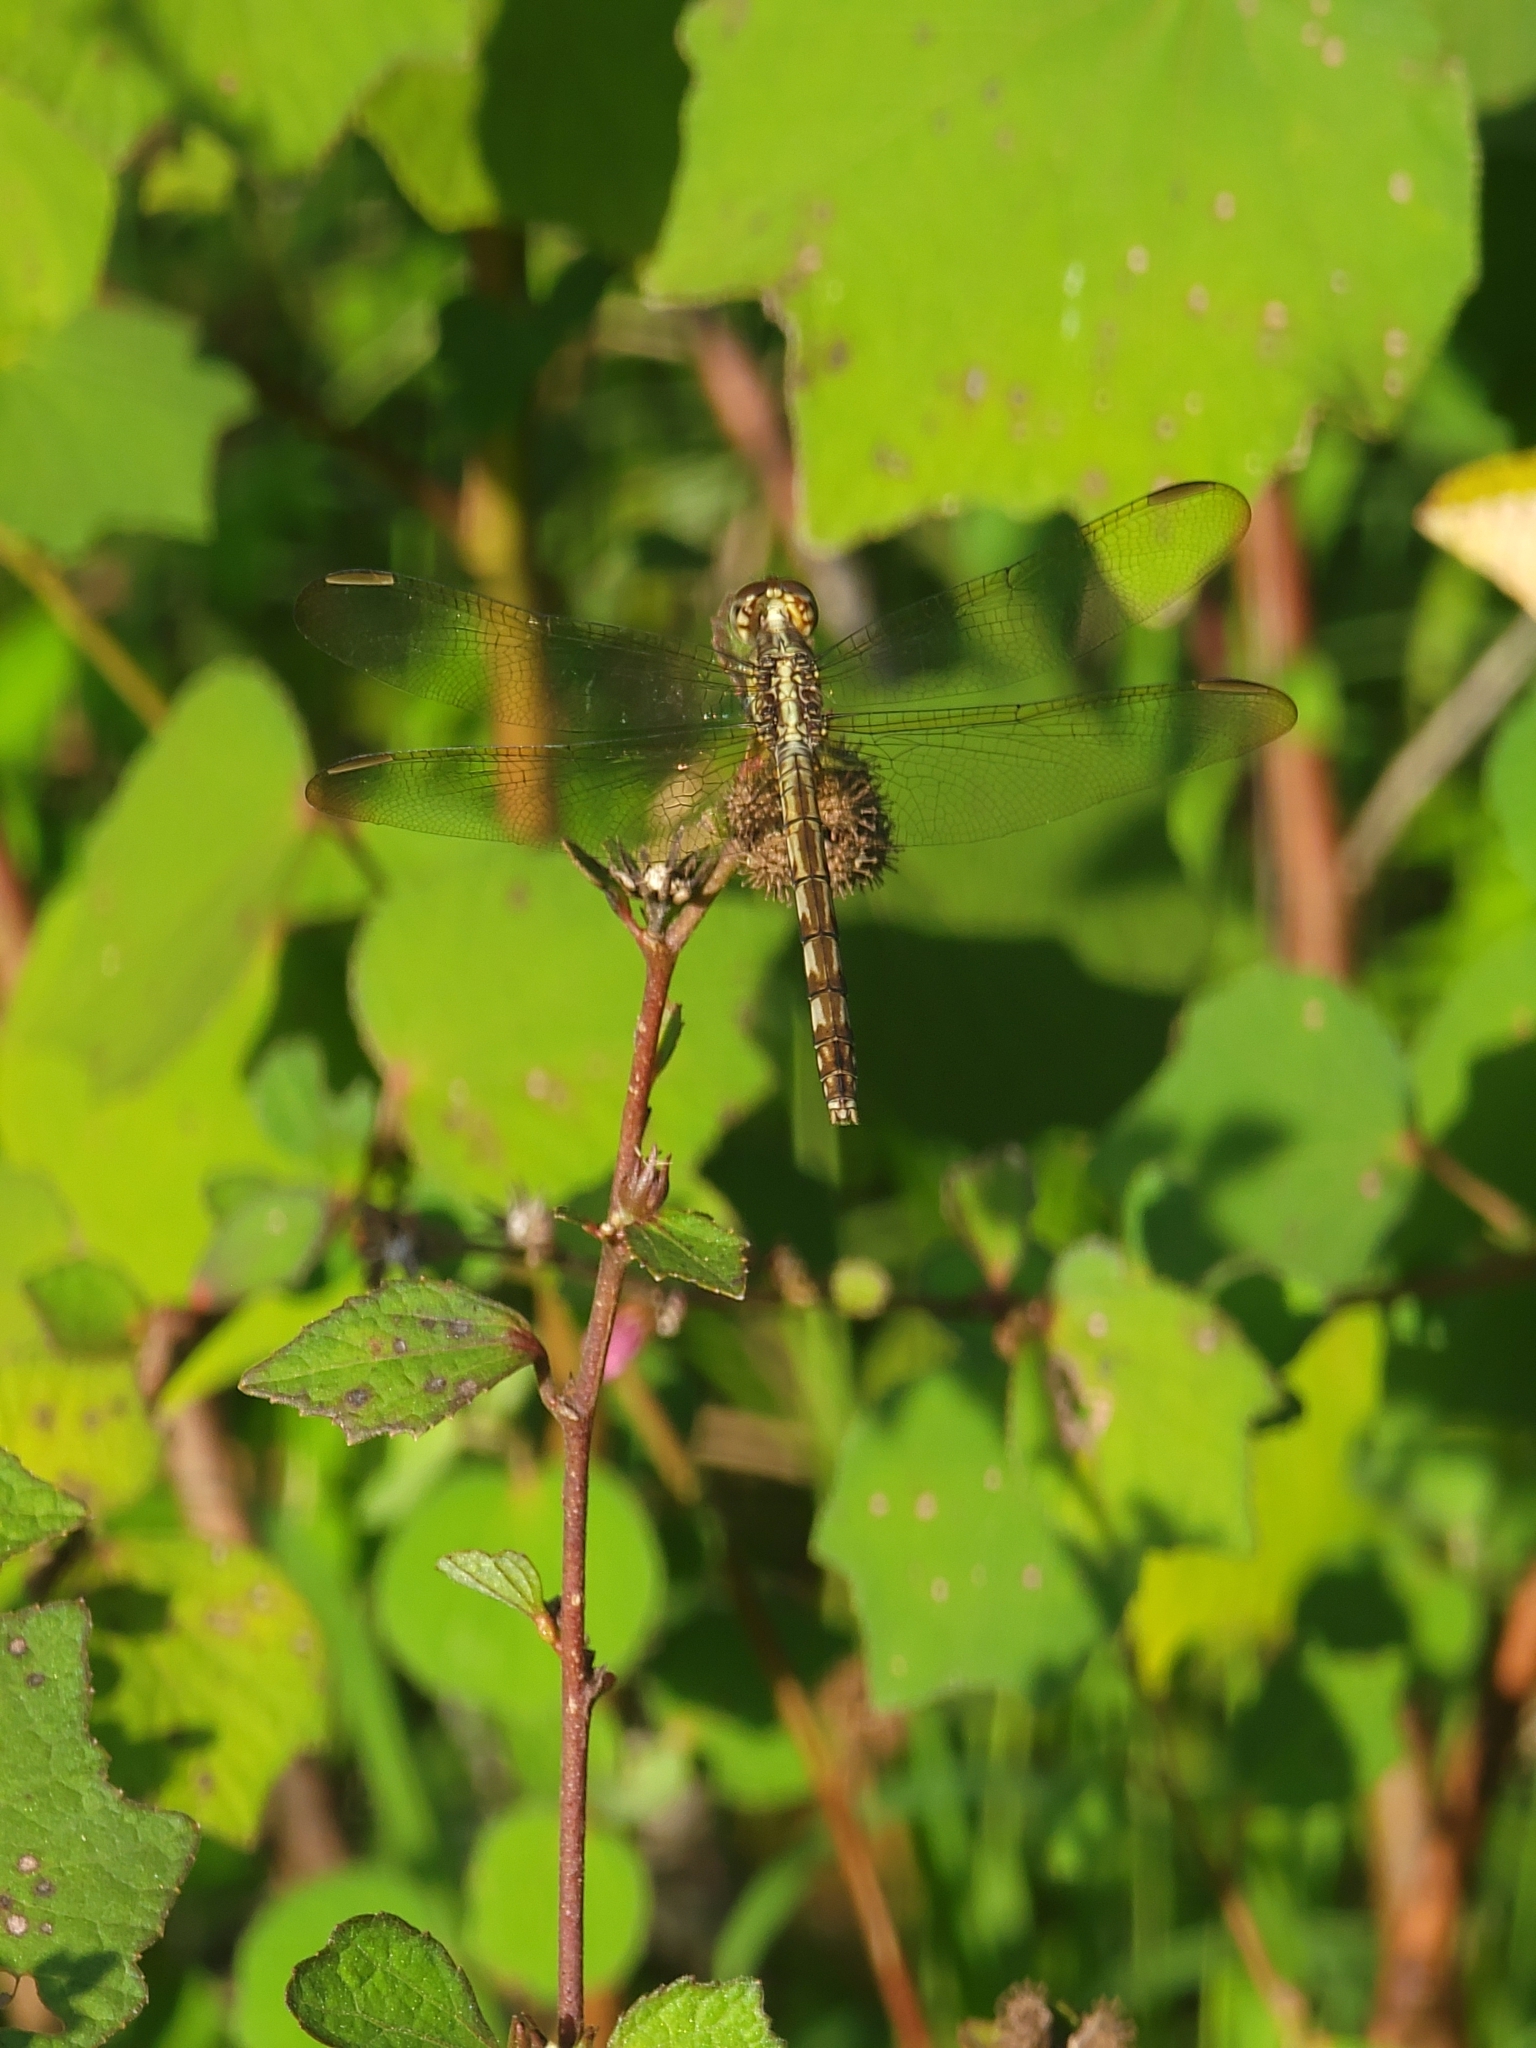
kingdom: Animalia
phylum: Arthropoda
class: Insecta
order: Odonata
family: Libellulidae
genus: Erythrodiplax
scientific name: Erythrodiplax umbrata
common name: Band-winged dragonlet
